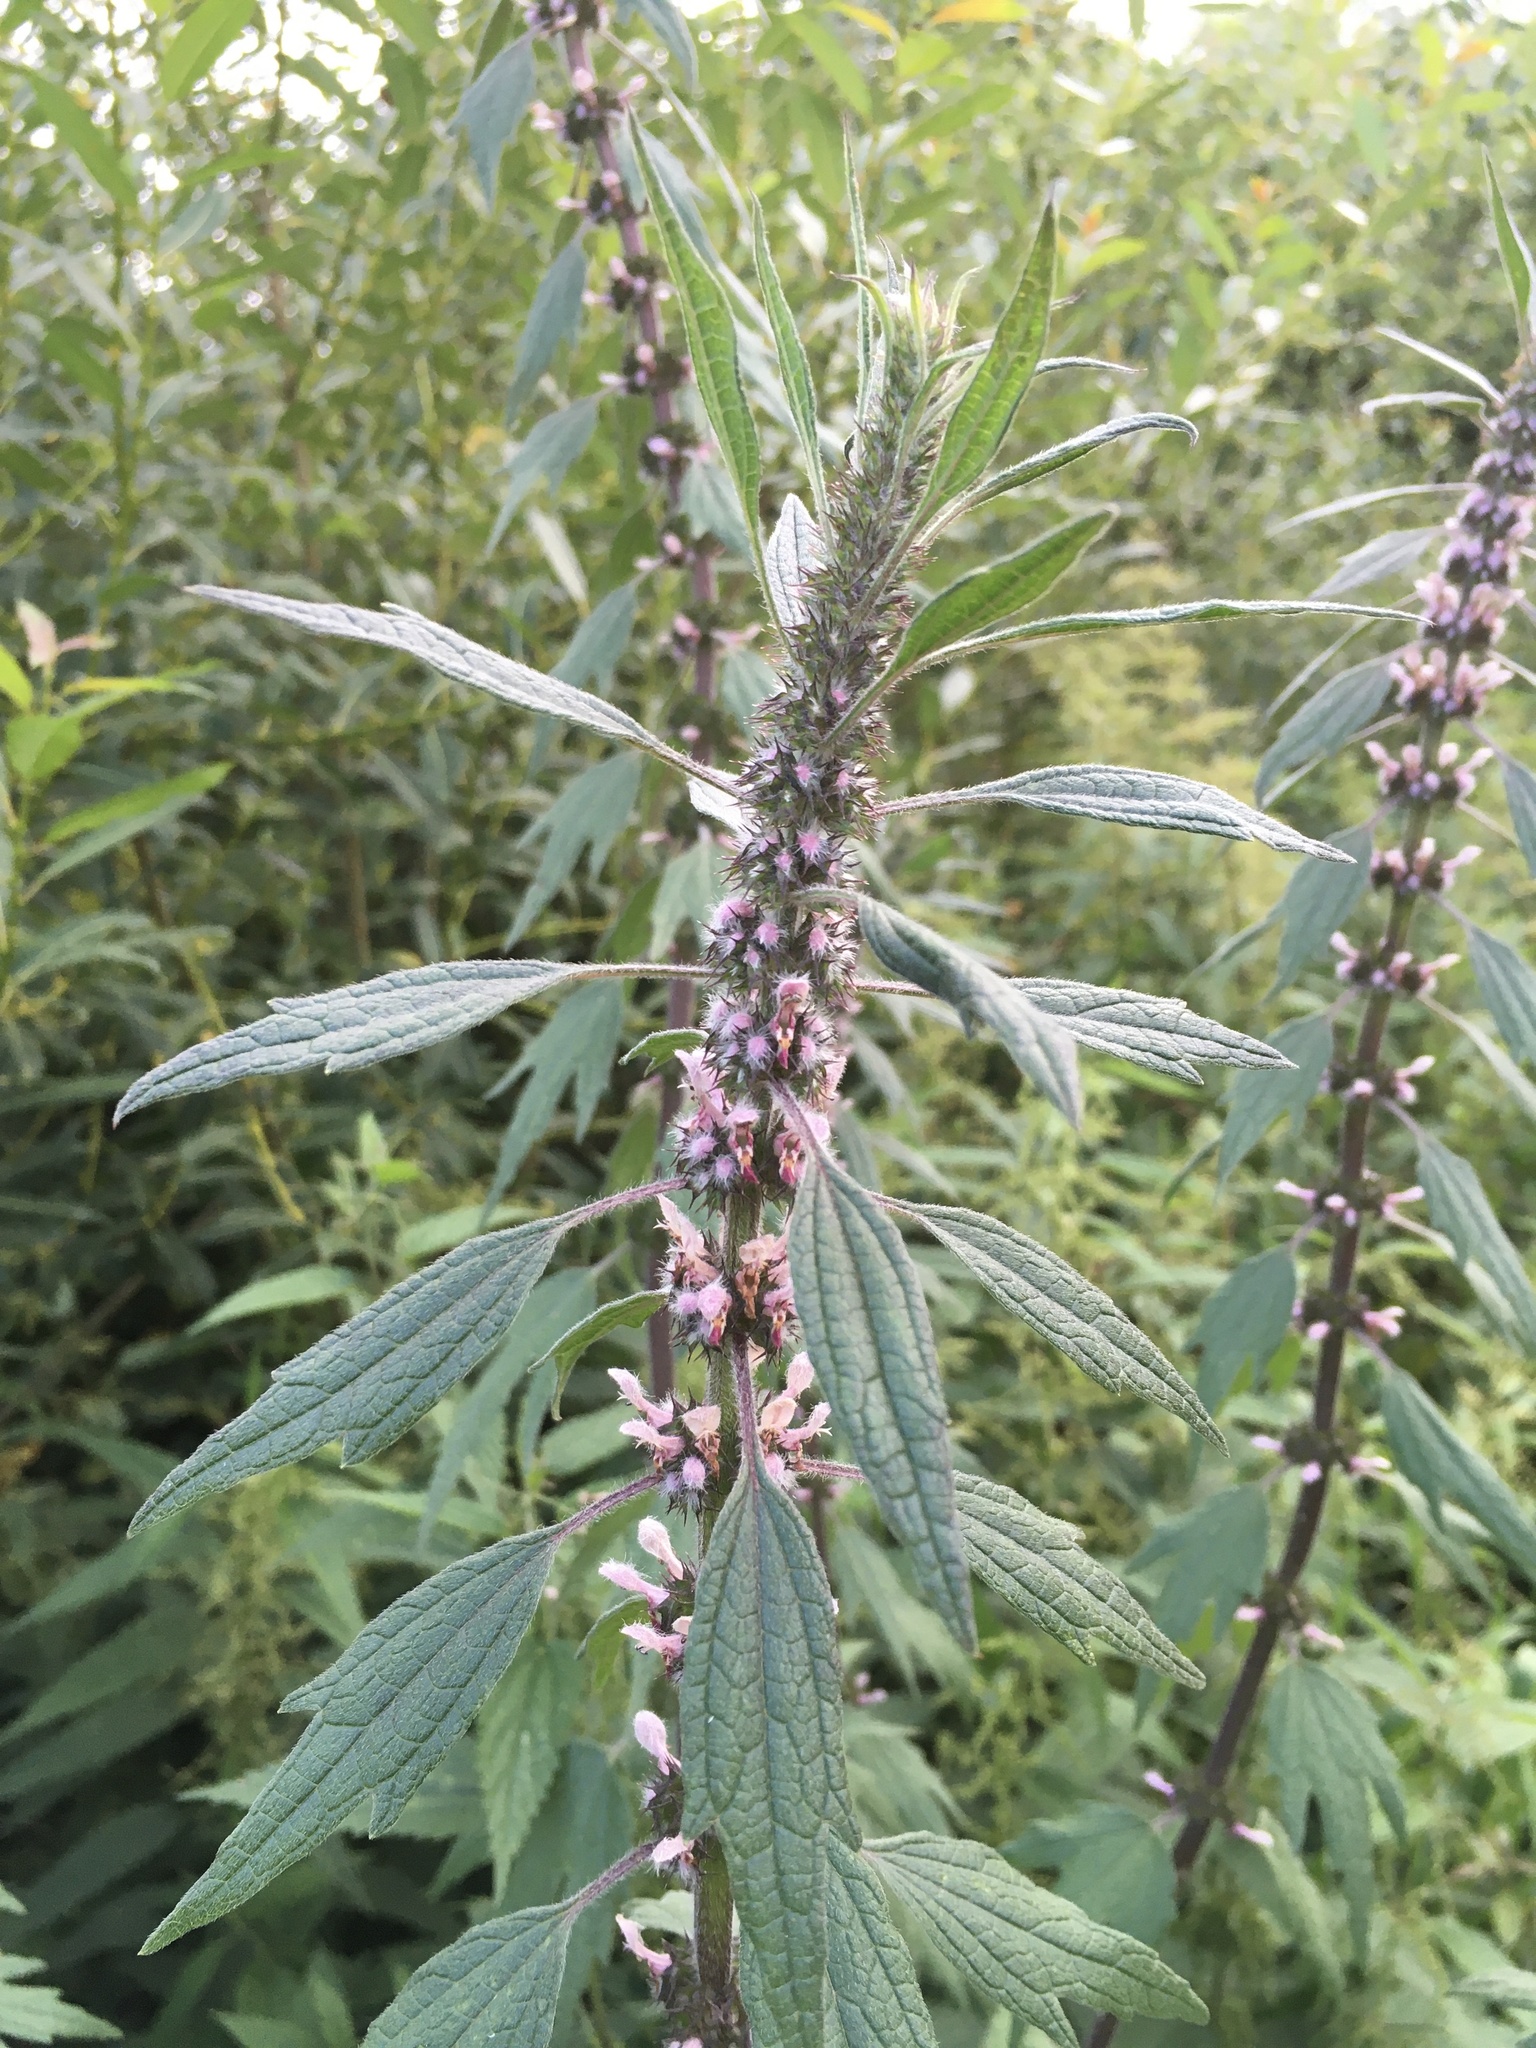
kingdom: Plantae
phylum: Tracheophyta
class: Magnoliopsida
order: Lamiales
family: Lamiaceae
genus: Leonurus
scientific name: Leonurus quinquelobatus
